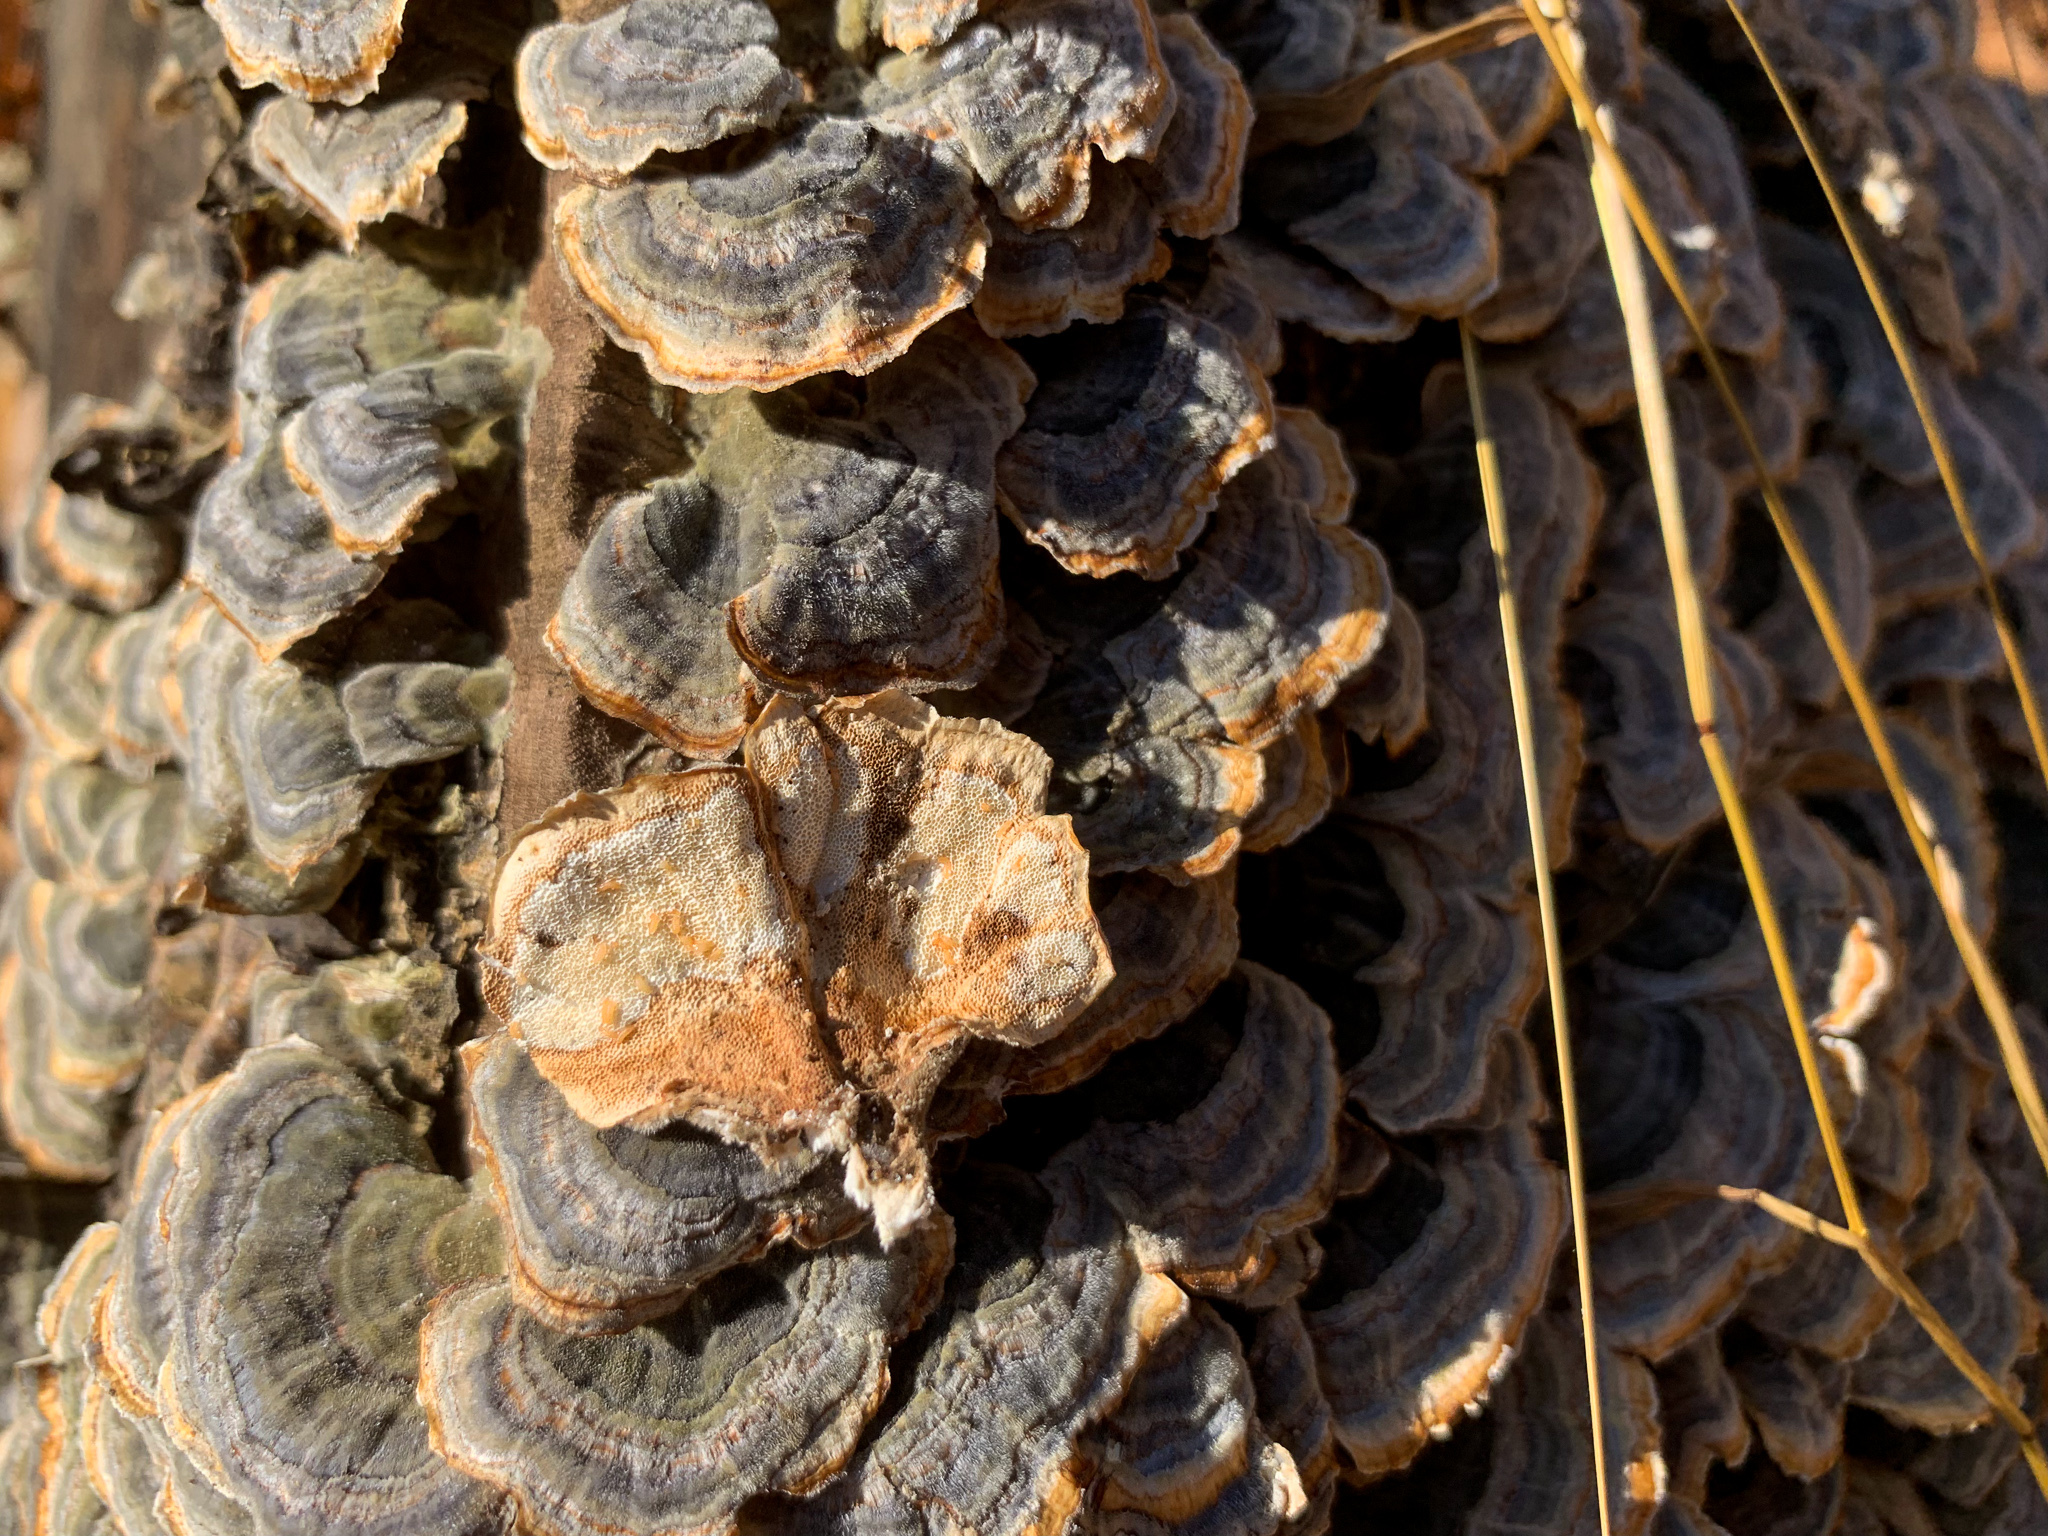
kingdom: Fungi
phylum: Basidiomycota
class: Agaricomycetes
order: Polyporales
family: Polyporaceae
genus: Trametes
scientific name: Trametes versicolor
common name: Turkeytail
